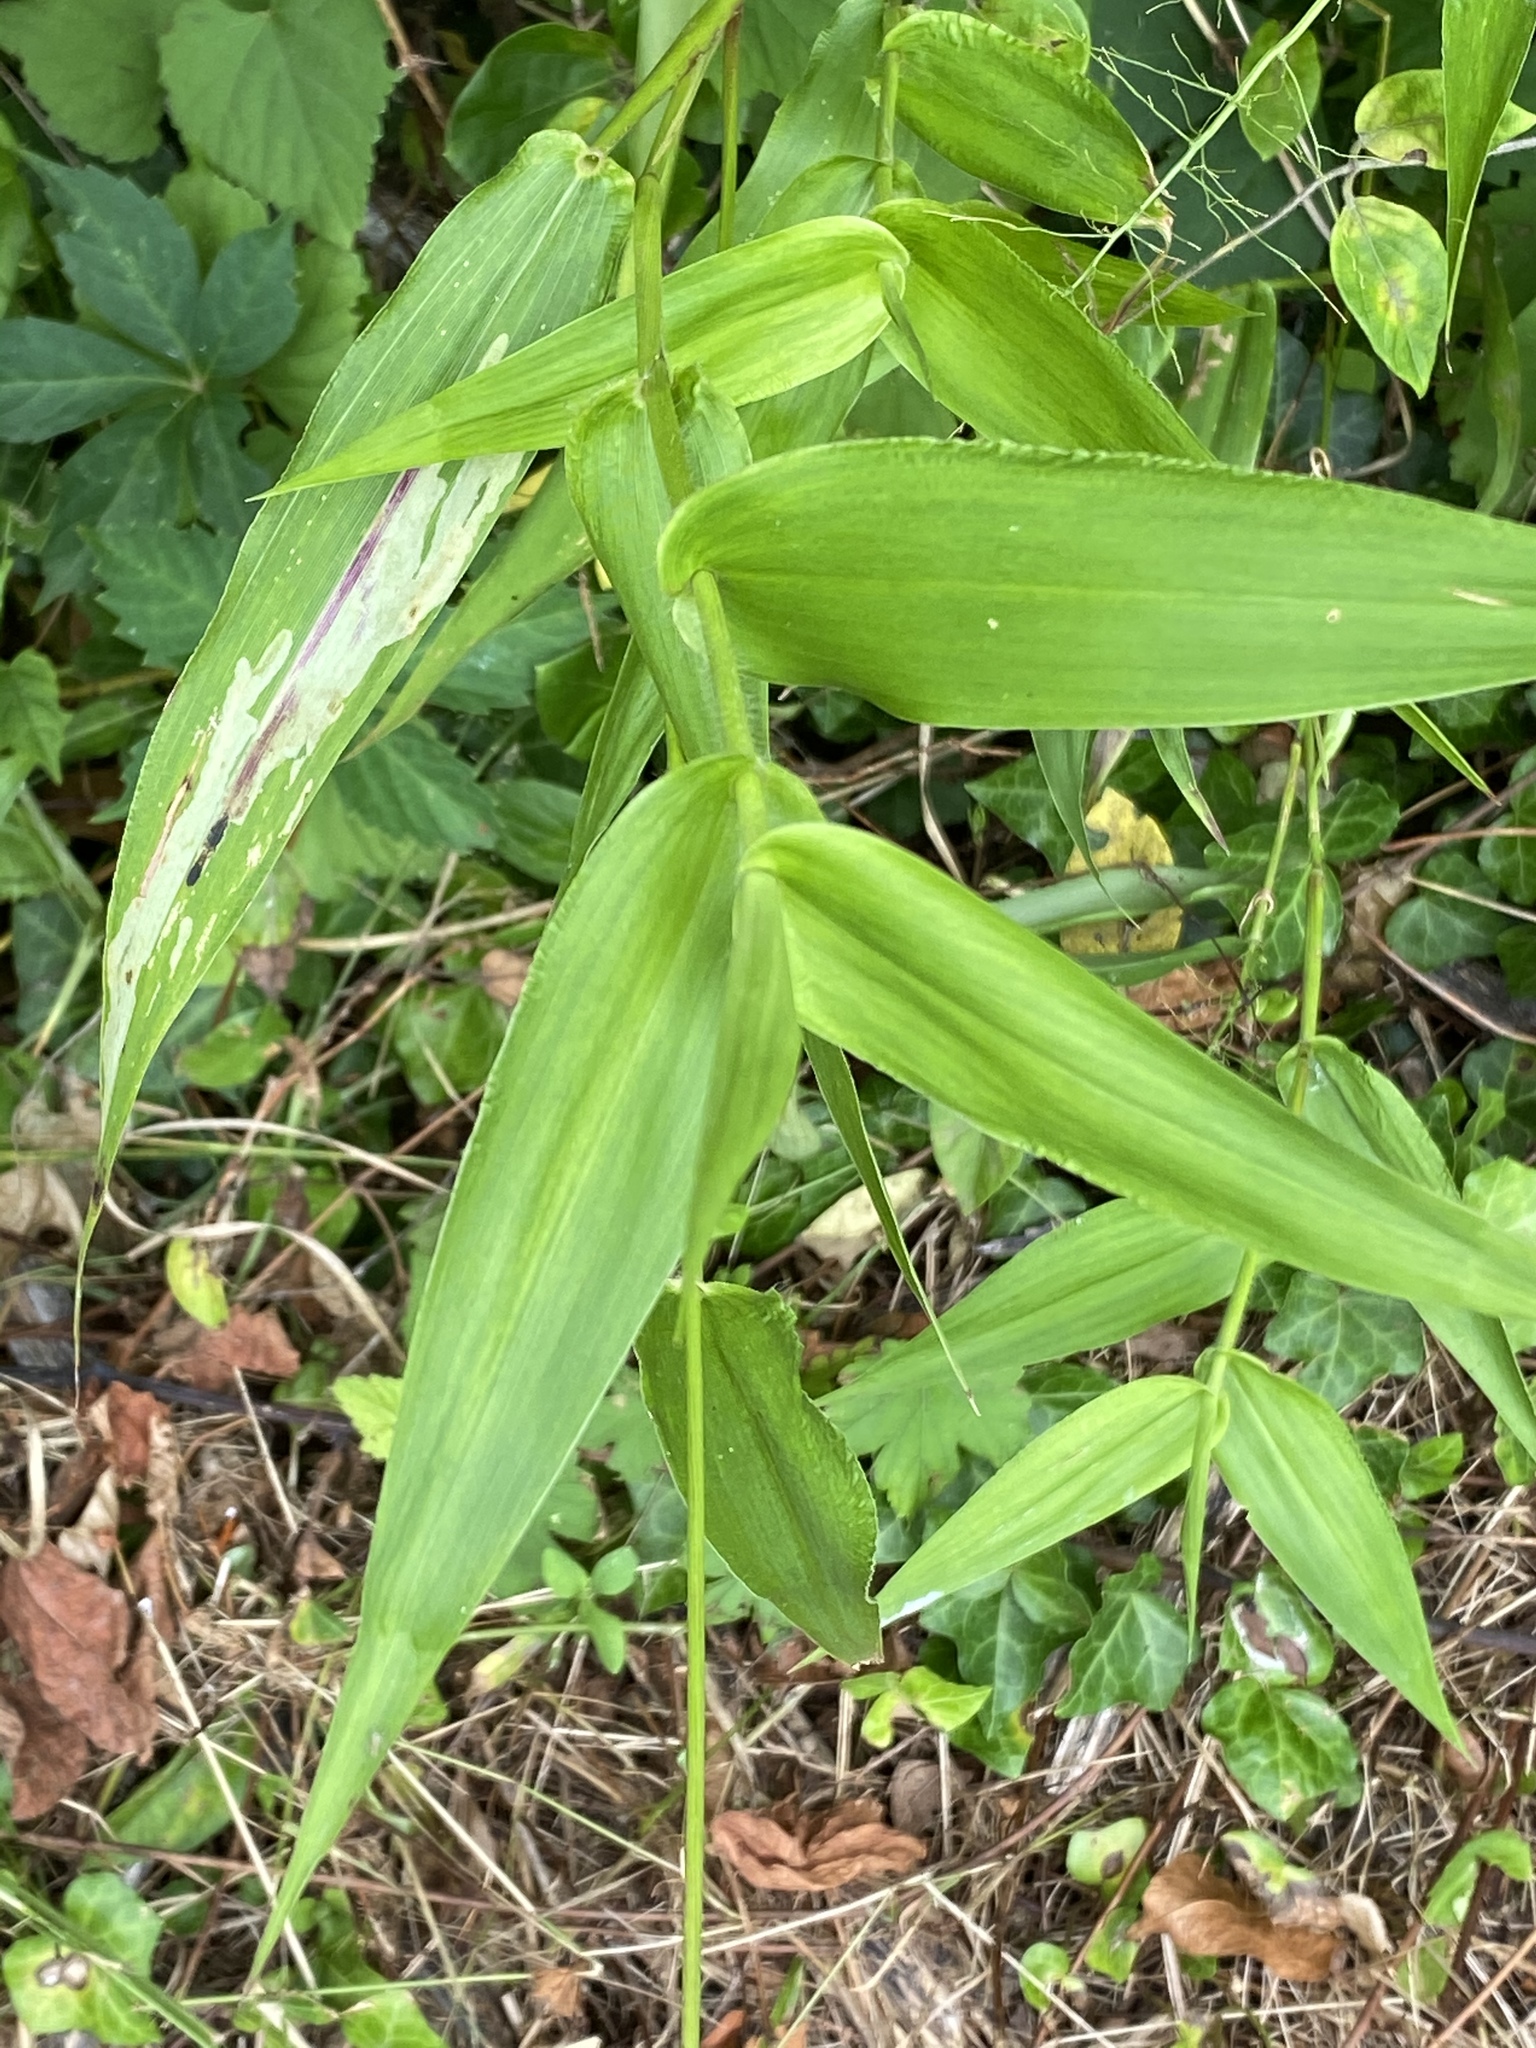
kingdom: Plantae
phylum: Tracheophyta
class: Liliopsida
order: Poales
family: Poaceae
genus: Dichanthelium
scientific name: Dichanthelium clandestinum
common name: Deer-tongue grass
